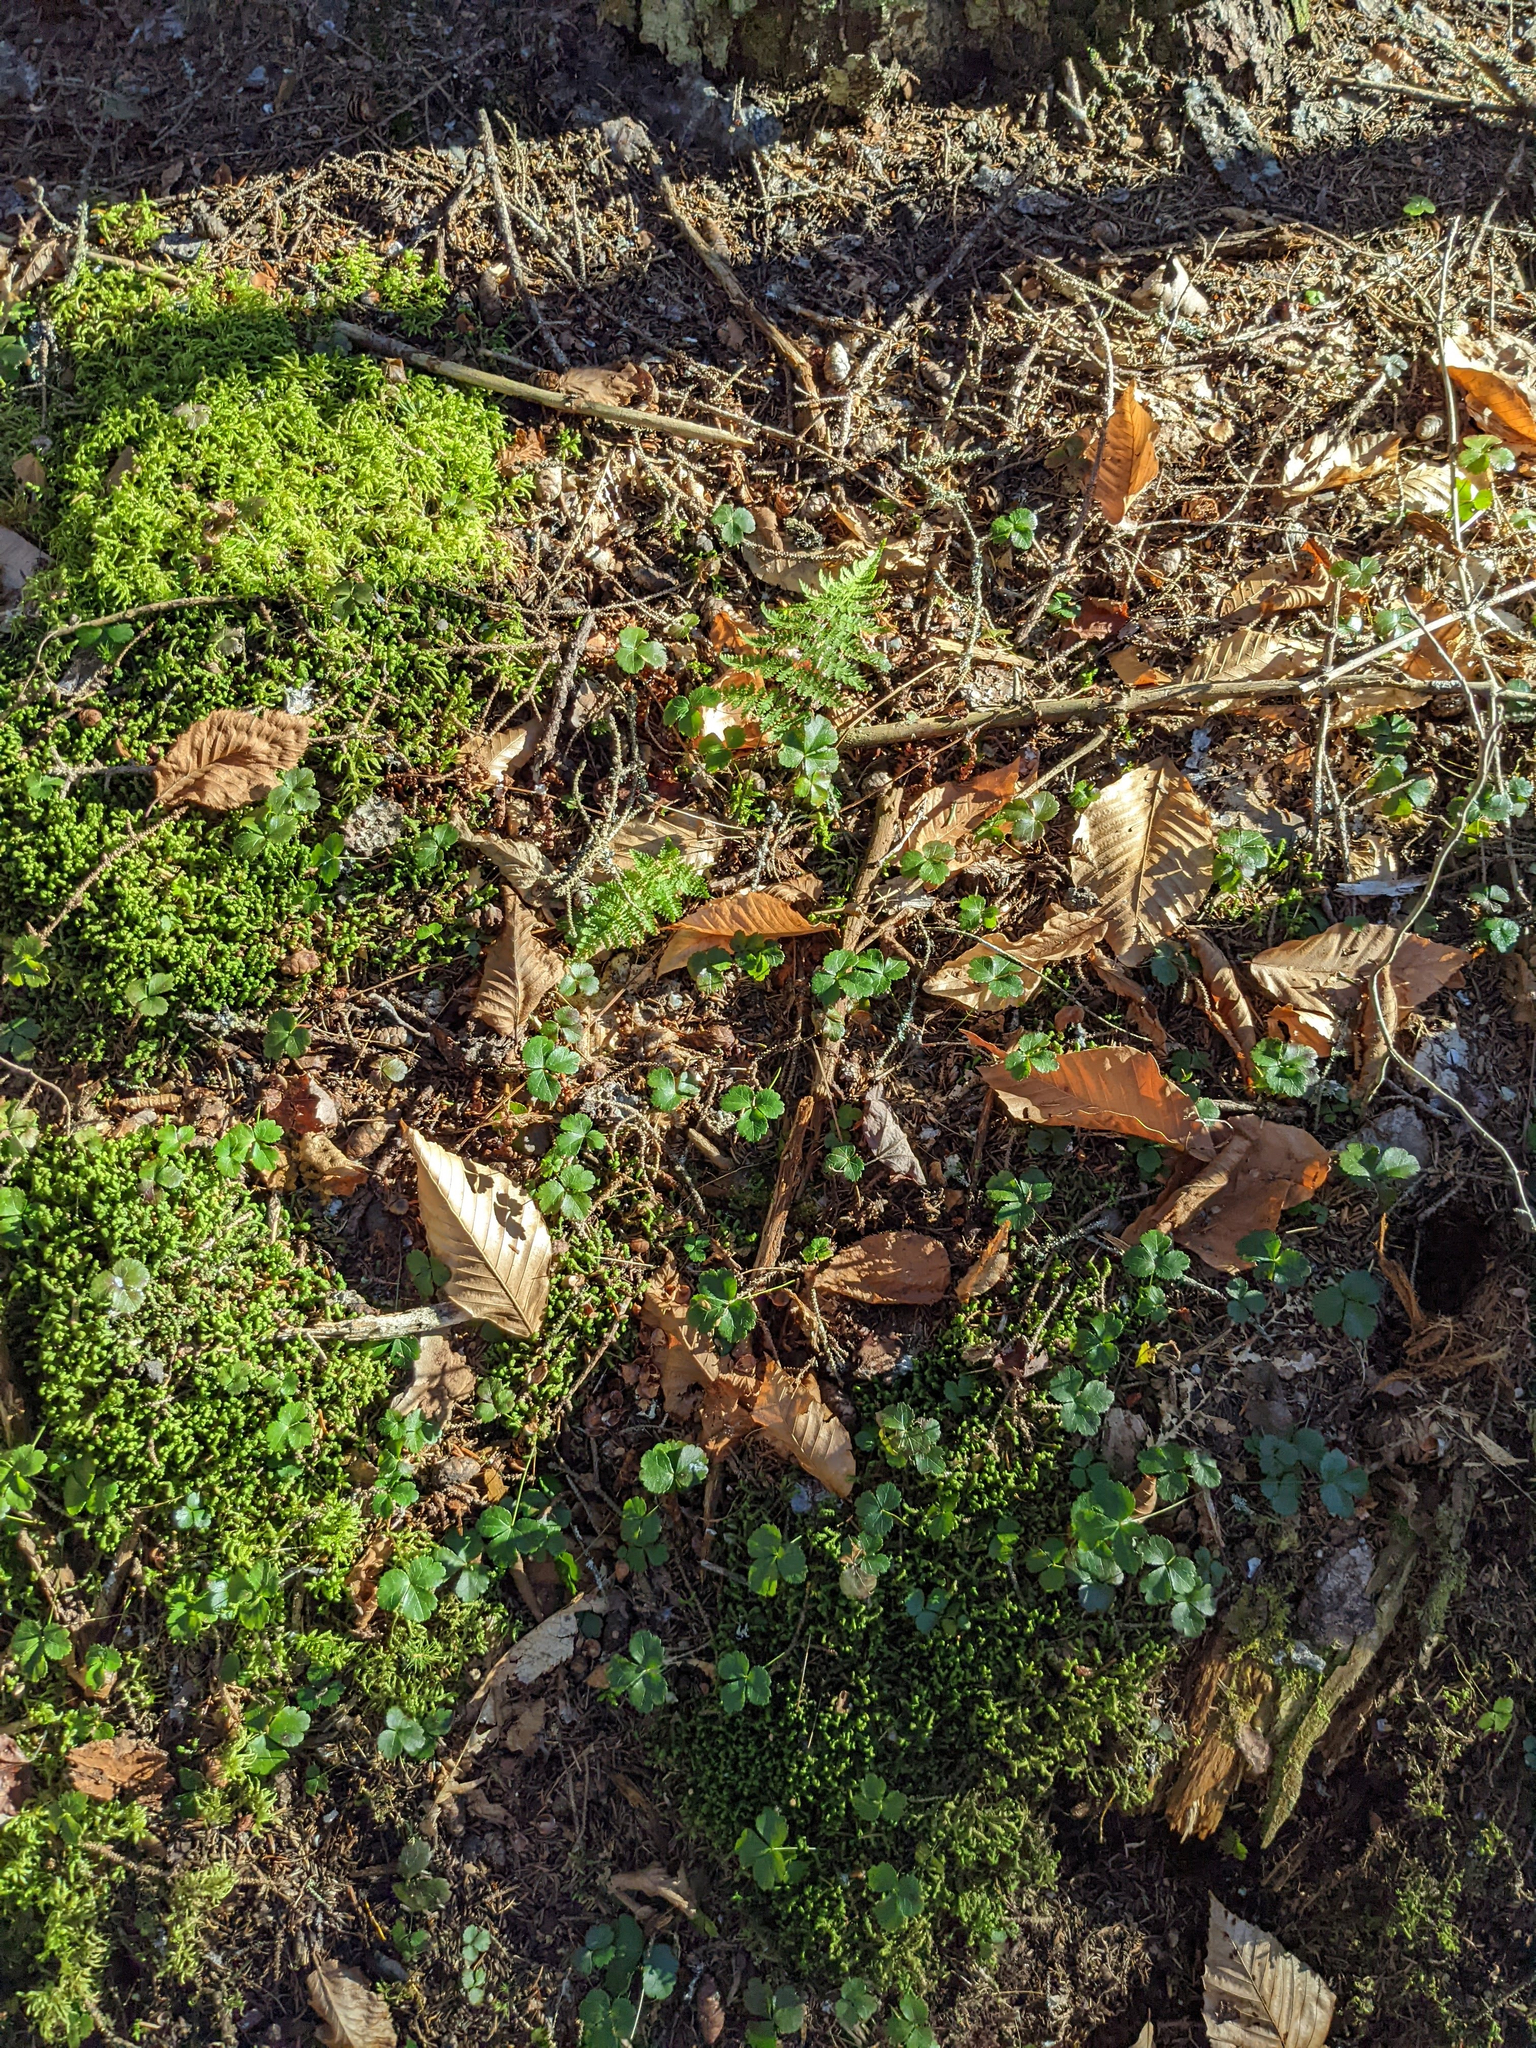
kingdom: Plantae
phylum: Tracheophyta
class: Polypodiopsida
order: Polypodiales
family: Dryopteridaceae
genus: Dryopteris
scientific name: Dryopteris intermedia
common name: Evergreen wood fern
